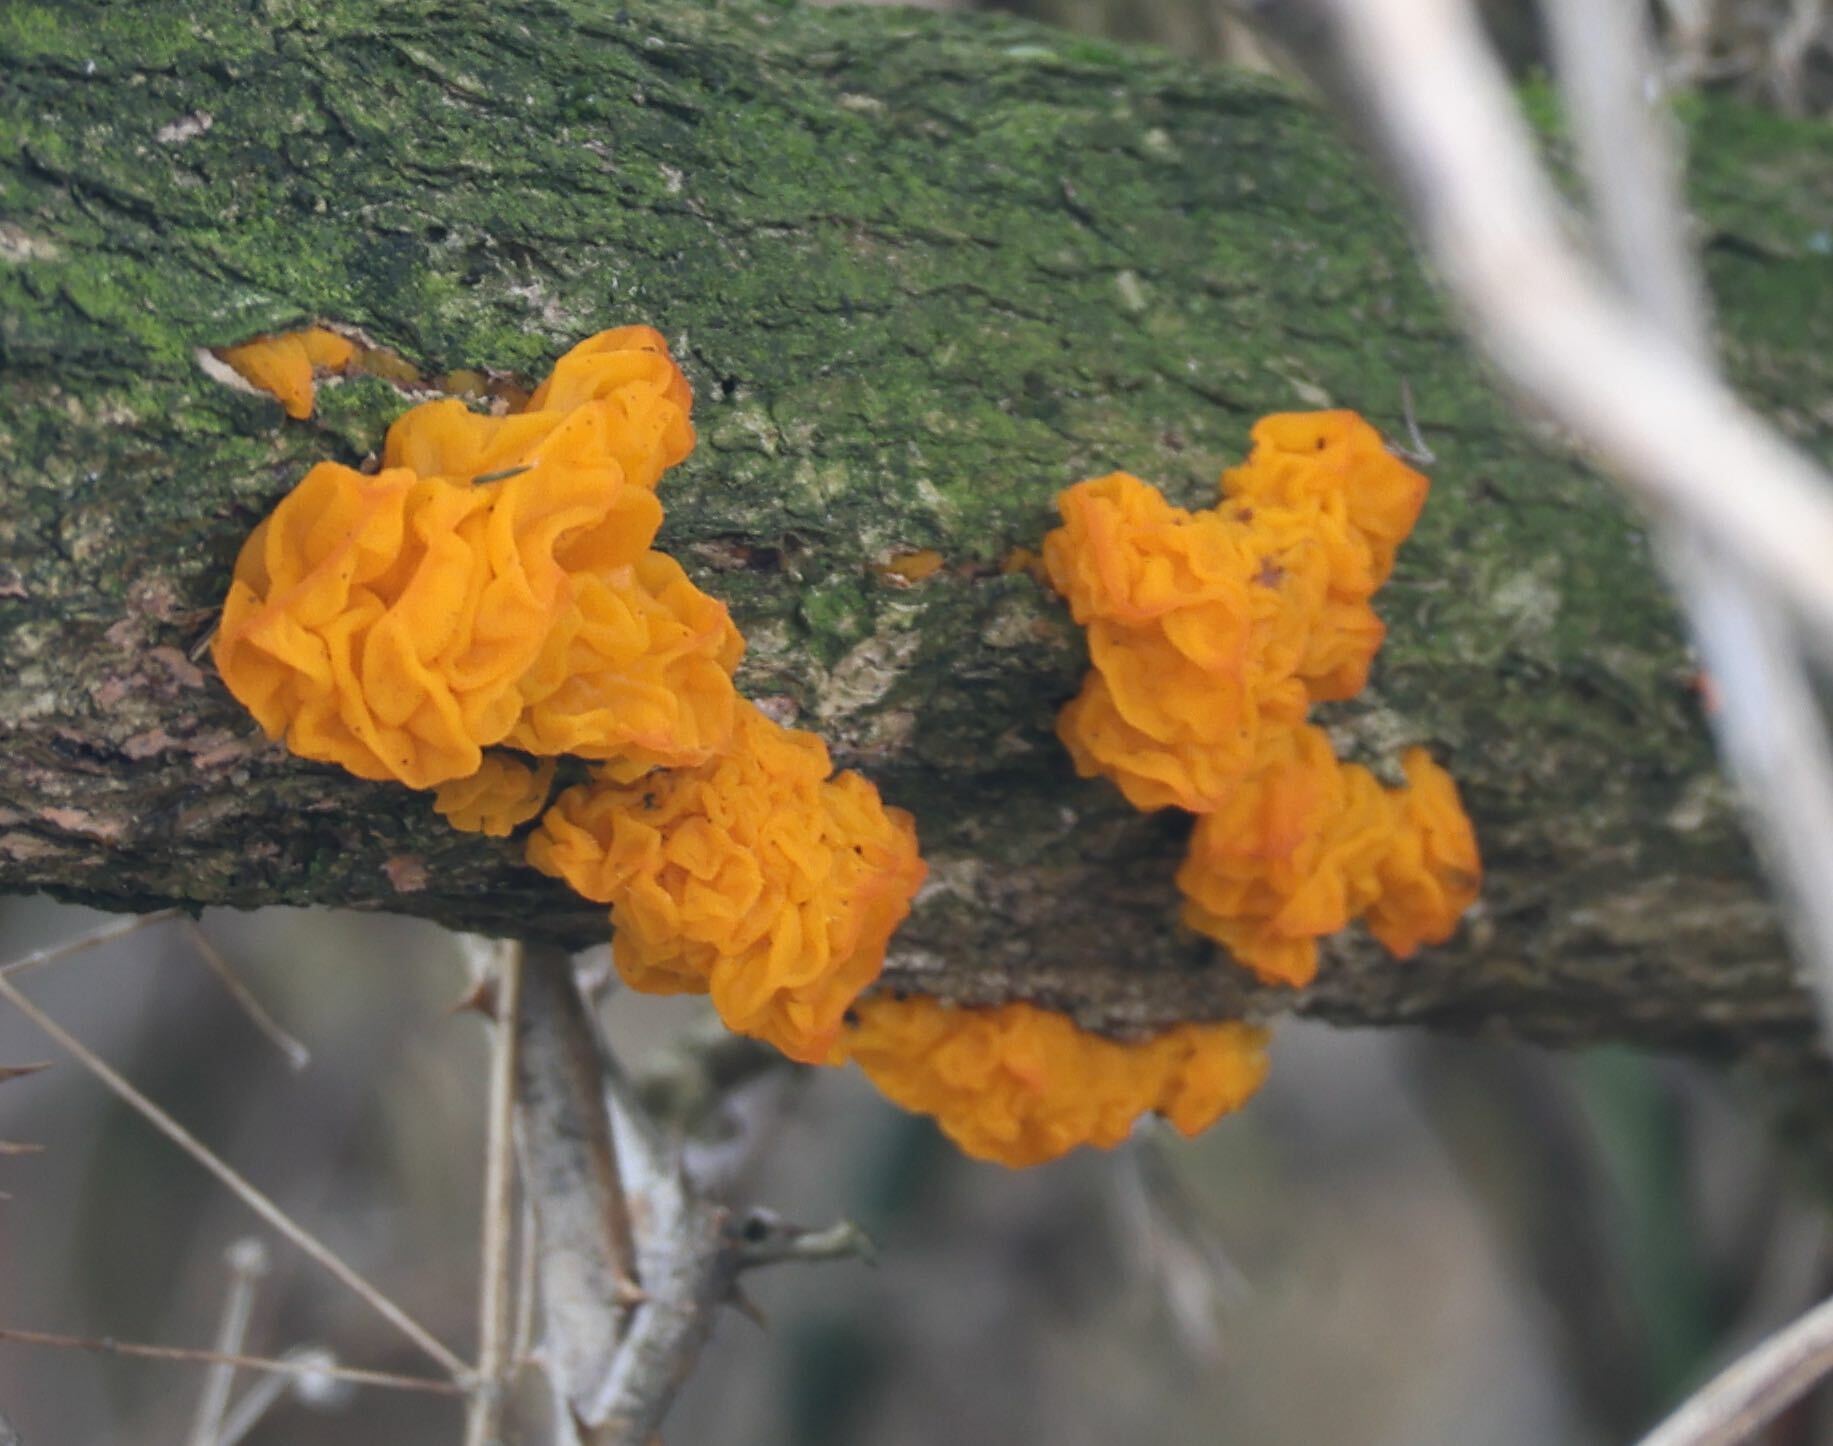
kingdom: Fungi
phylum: Basidiomycota
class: Tremellomycetes
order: Tremellales
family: Tremellaceae
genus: Tremella
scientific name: Tremella mesenterica
